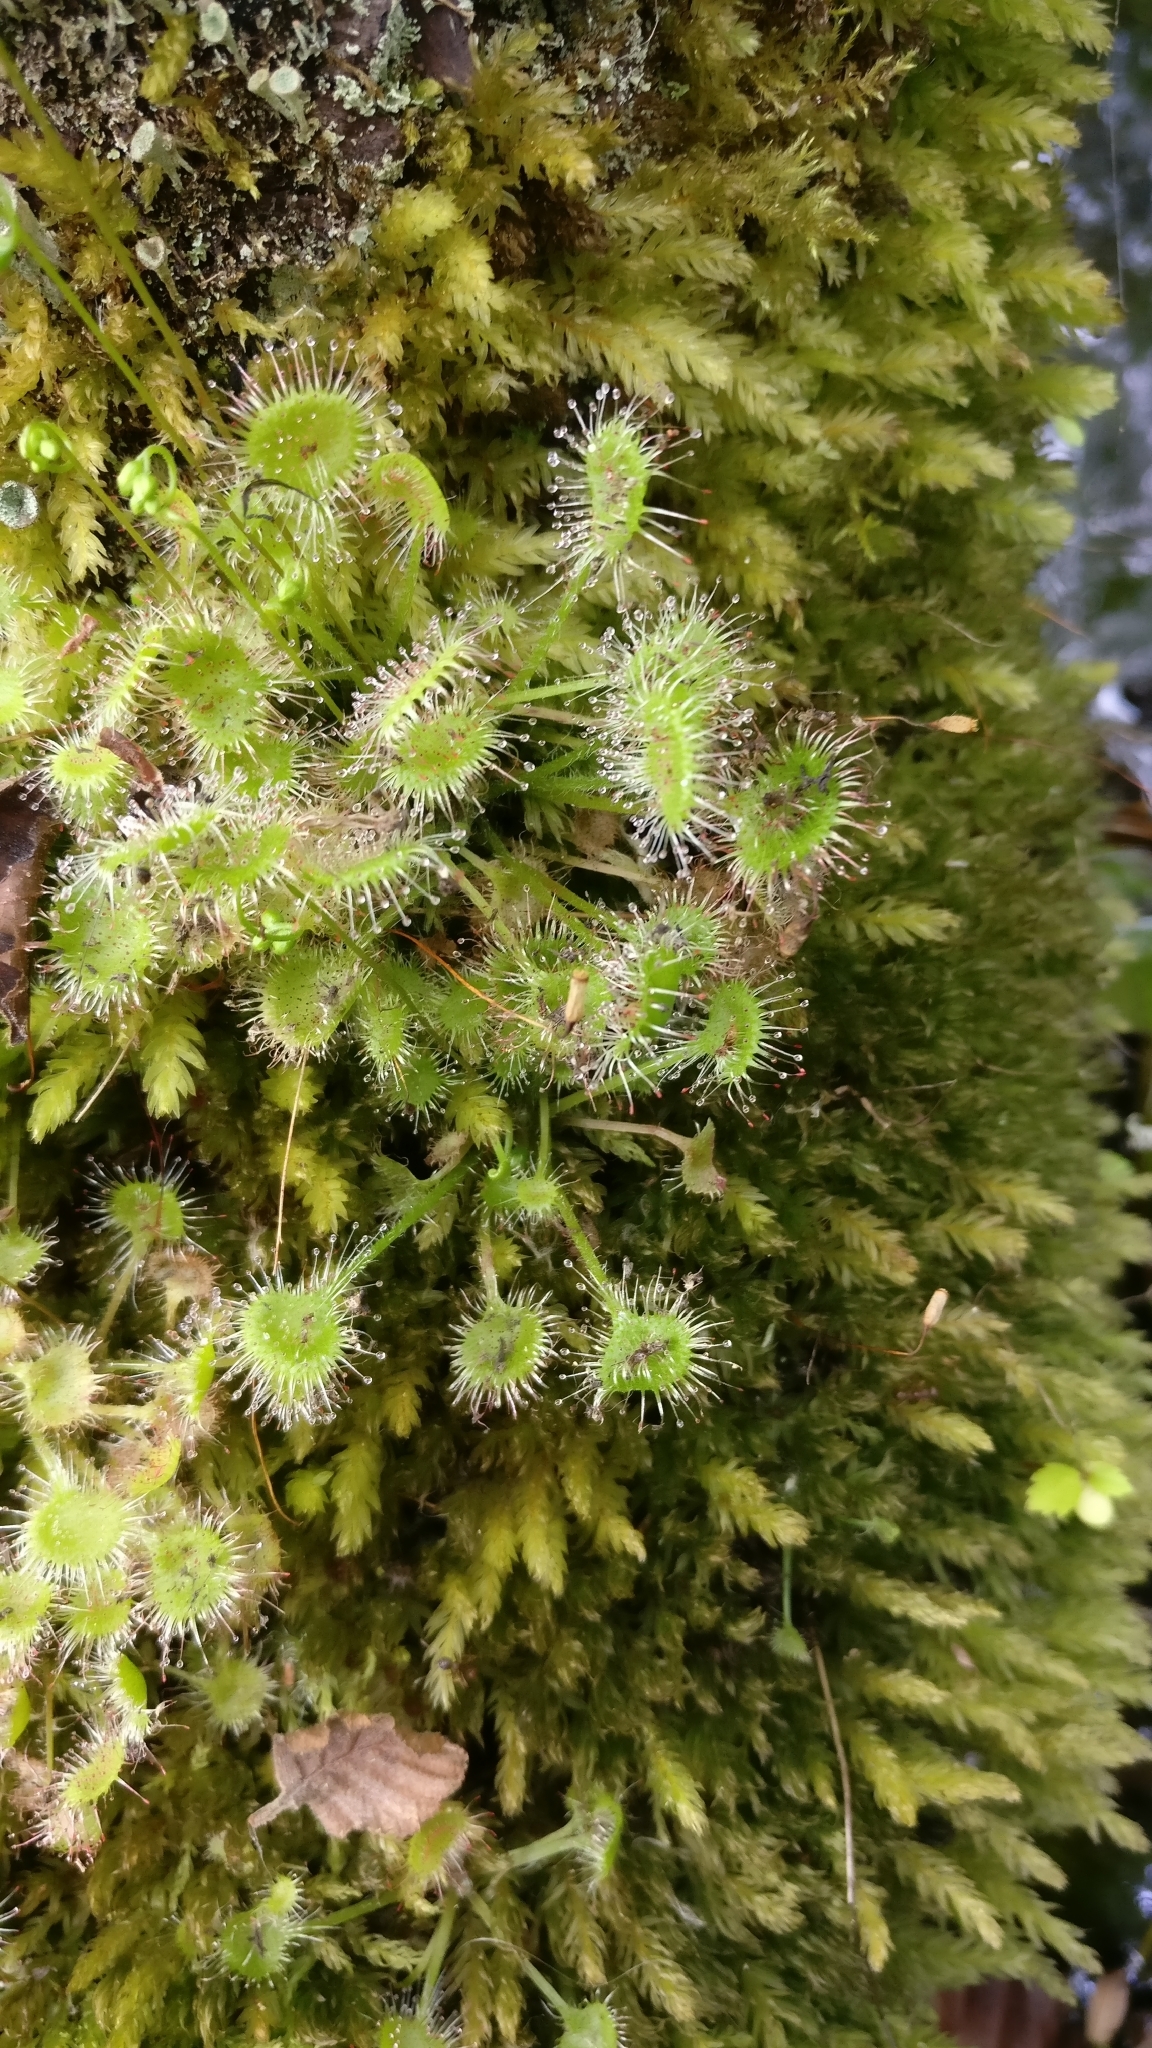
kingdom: Plantae
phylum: Tracheophyta
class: Magnoliopsida
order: Caryophyllales
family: Droseraceae
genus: Drosera
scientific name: Drosera rotundifolia
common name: Round-leaved sundew
